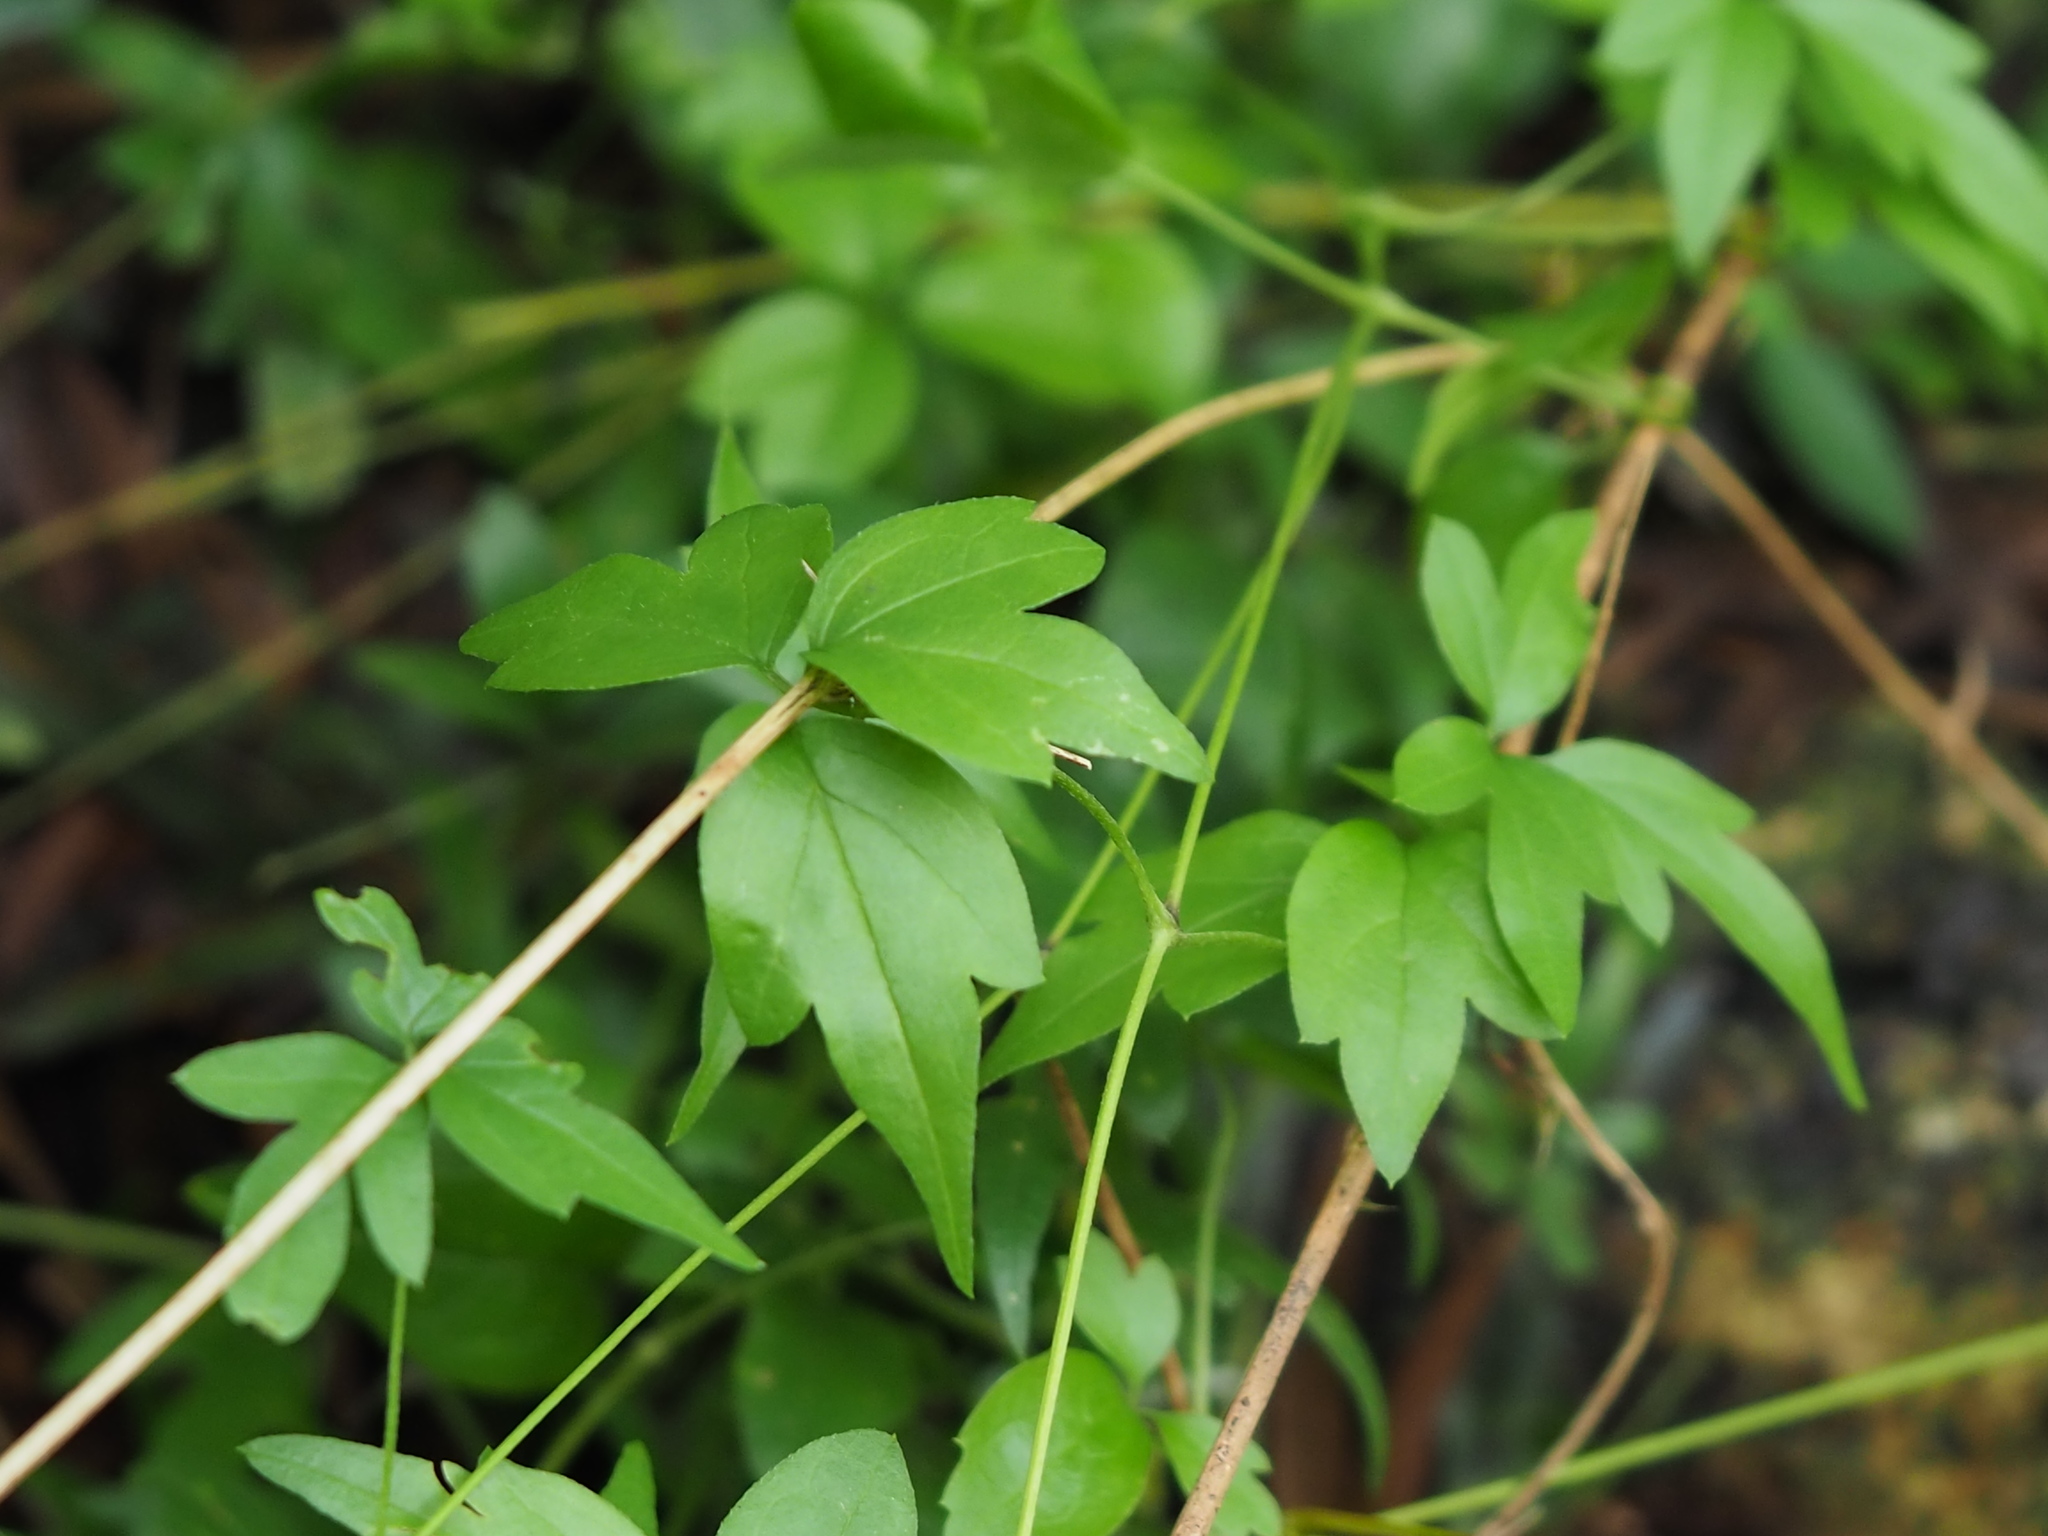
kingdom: Plantae
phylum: Tracheophyta
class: Magnoliopsida
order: Ranunculales
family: Ranunculaceae
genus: Clematis
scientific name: Clematis formosana
